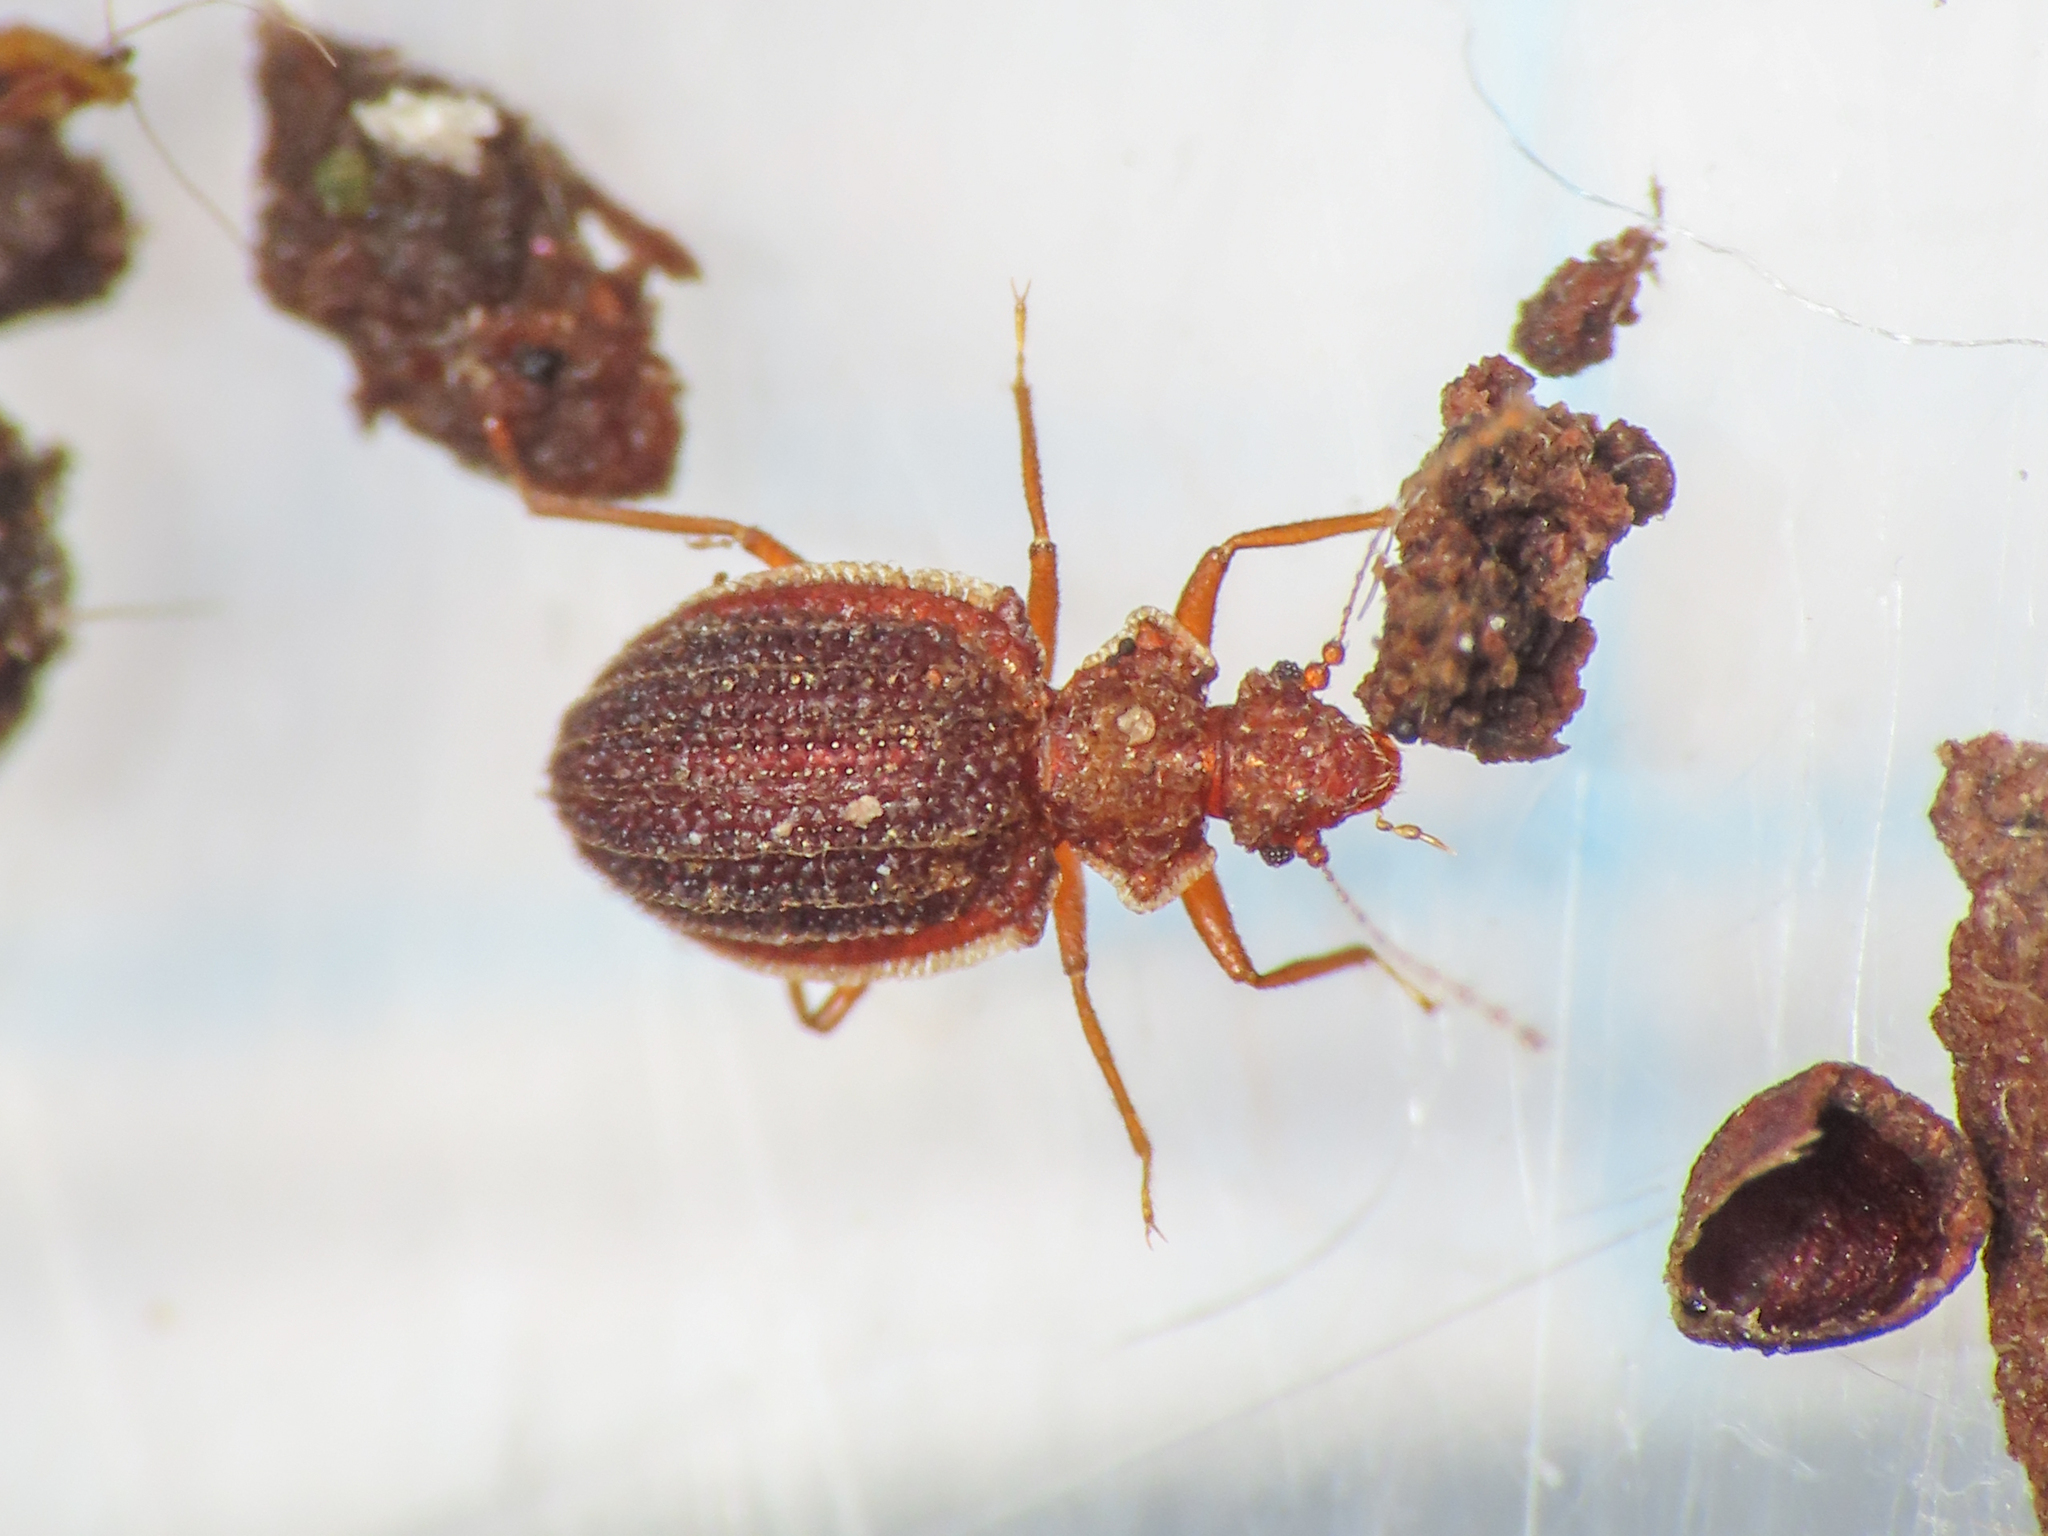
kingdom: Animalia
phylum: Arthropoda
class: Insecta
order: Coleoptera
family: Staphylinidae
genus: Dasycerus
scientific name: Dasycerus sulcatus
